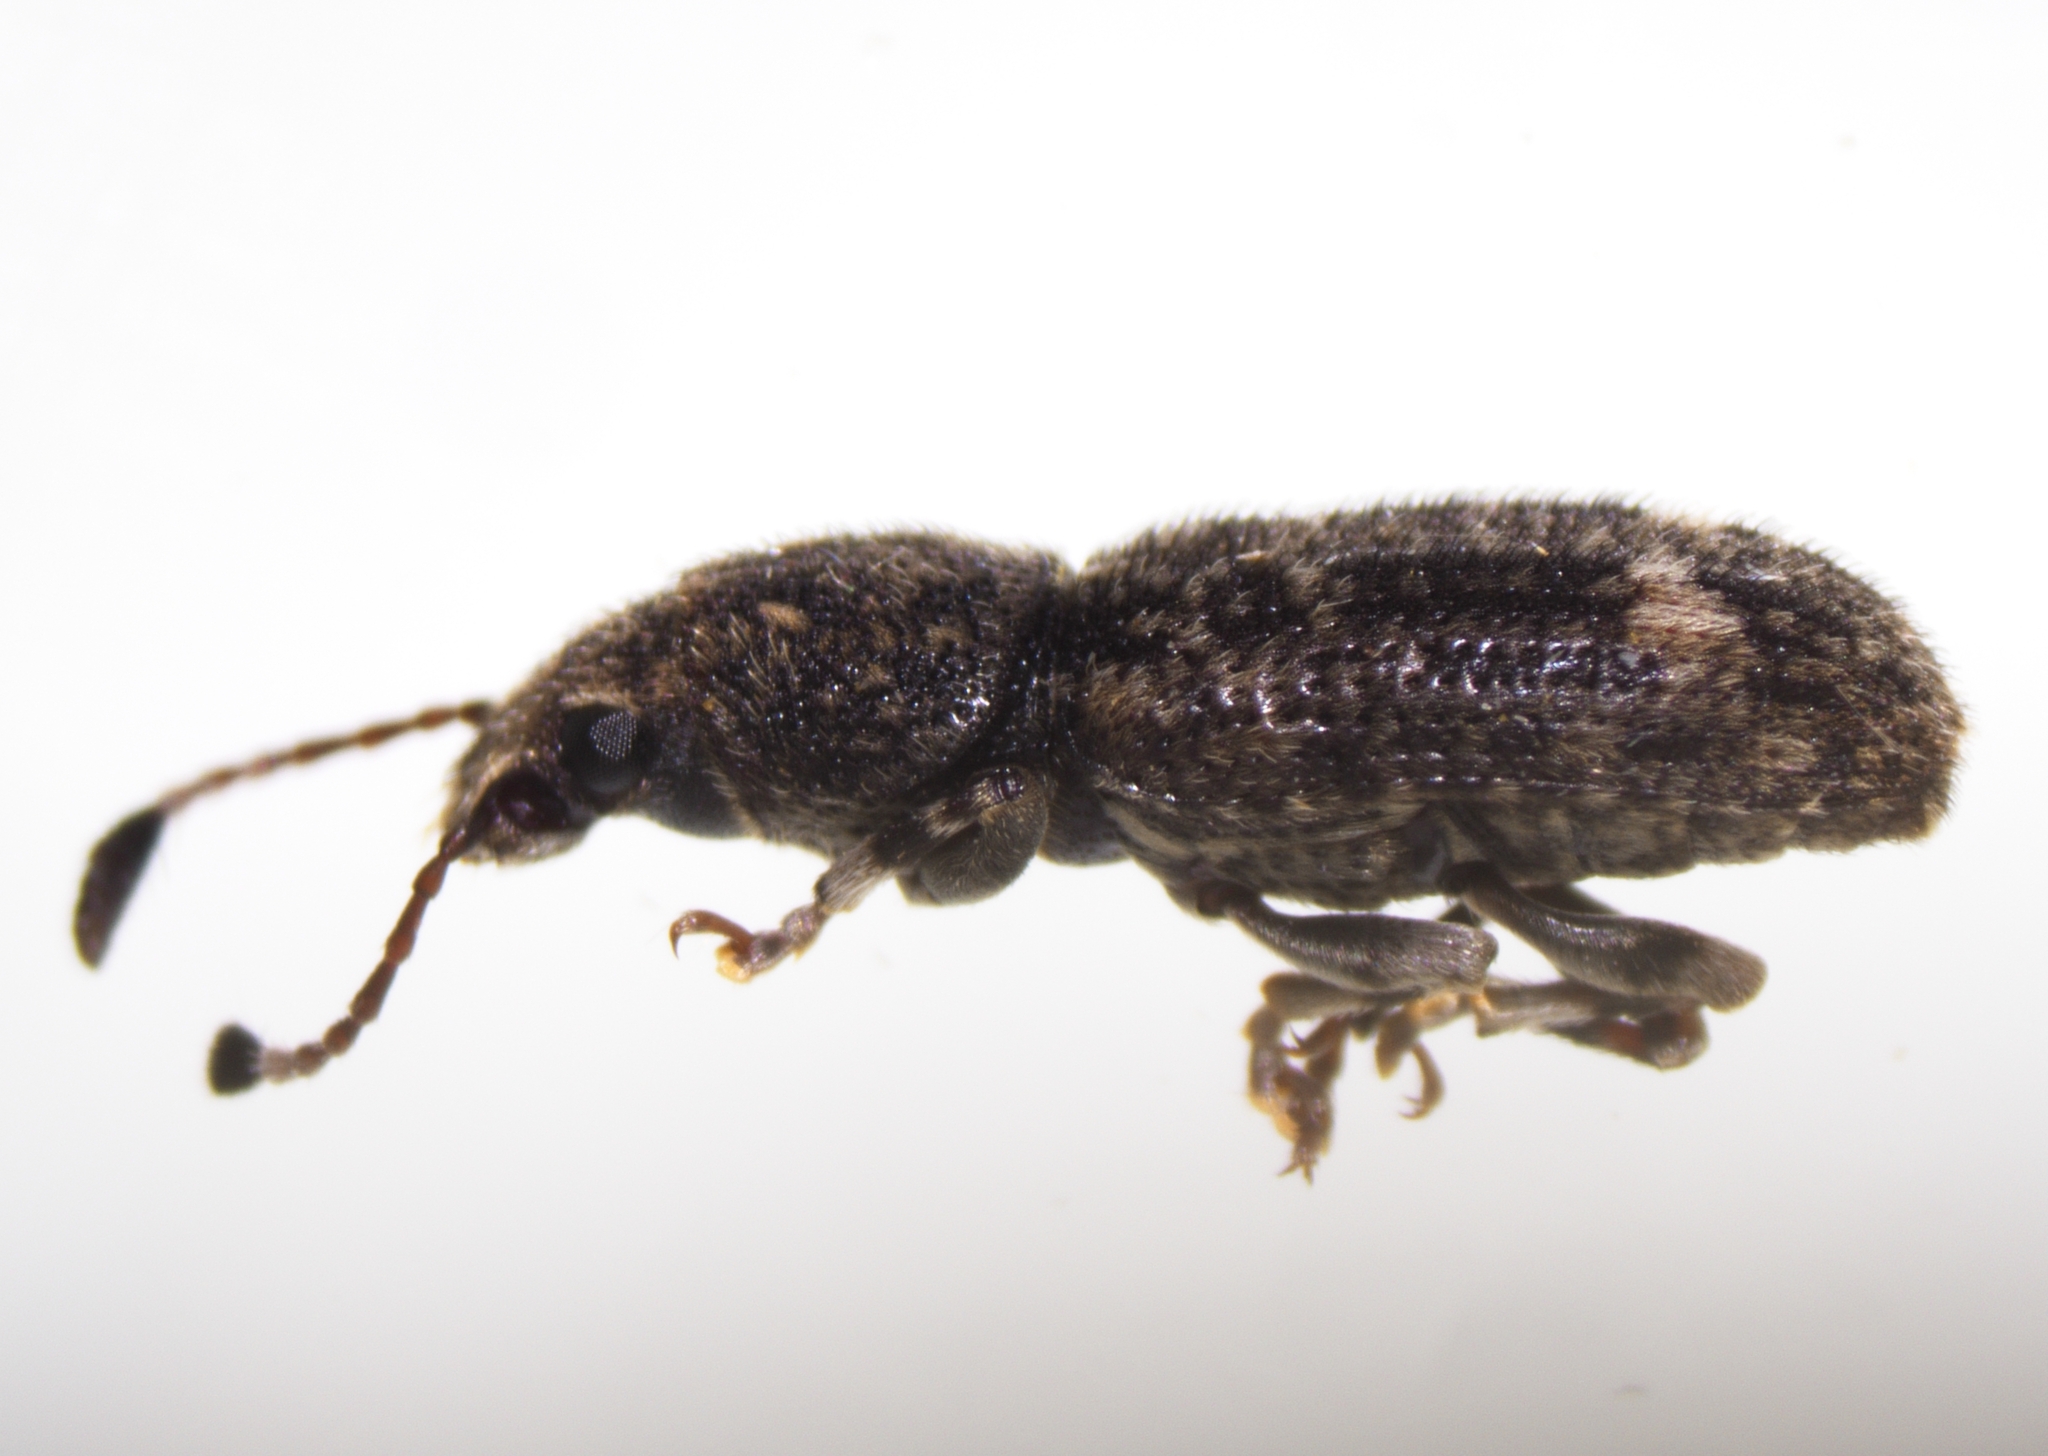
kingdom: Animalia
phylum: Arthropoda
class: Insecta
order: Coleoptera
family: Anthribidae
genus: Eucorynus
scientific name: Eucorynus crassicornis
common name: Fungus weevil
